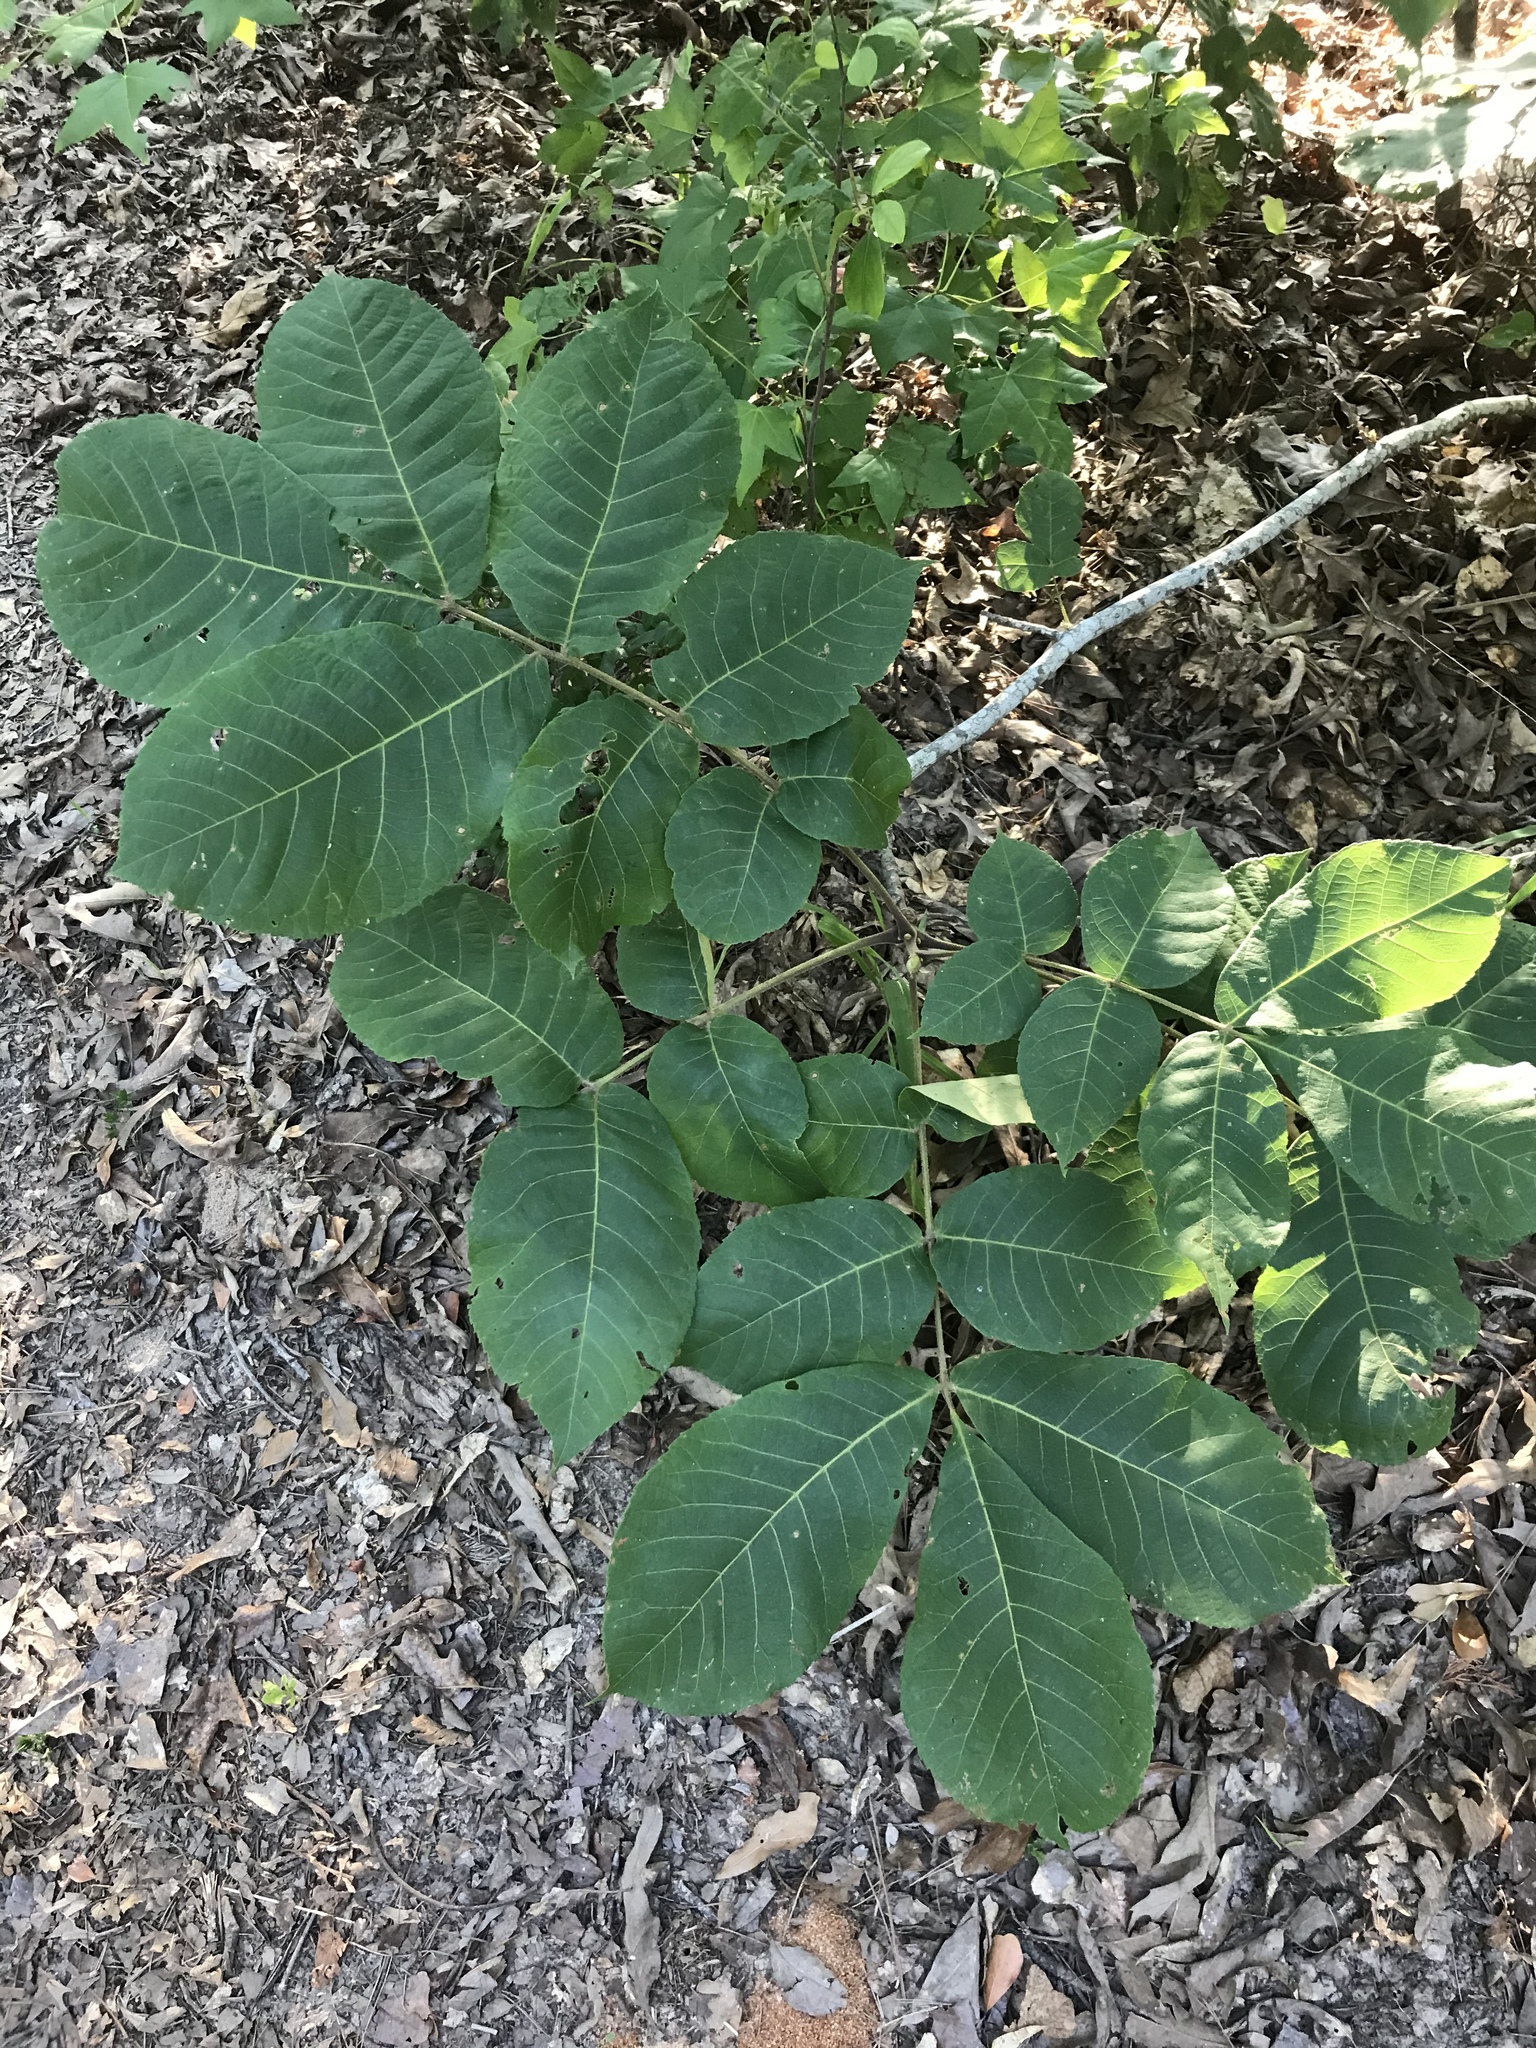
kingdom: Plantae
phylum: Tracheophyta
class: Magnoliopsida
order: Fagales
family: Juglandaceae
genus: Carya
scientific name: Carya alba
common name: Mockernut hickory
